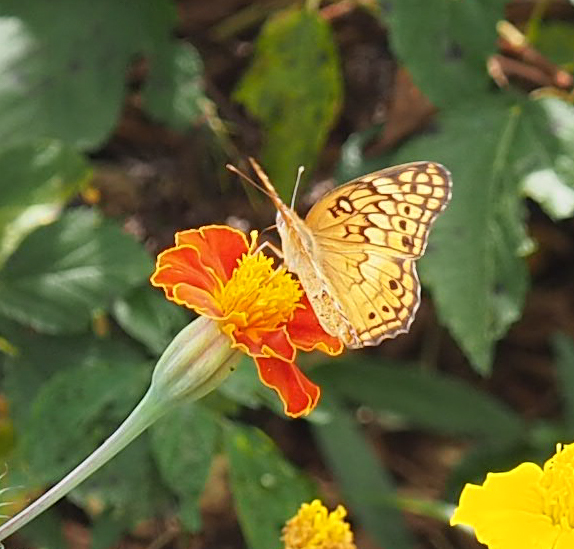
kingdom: Animalia
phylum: Arthropoda
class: Insecta
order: Lepidoptera
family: Nymphalidae
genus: Euptoieta
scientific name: Euptoieta claudia
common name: Variegated fritillary
